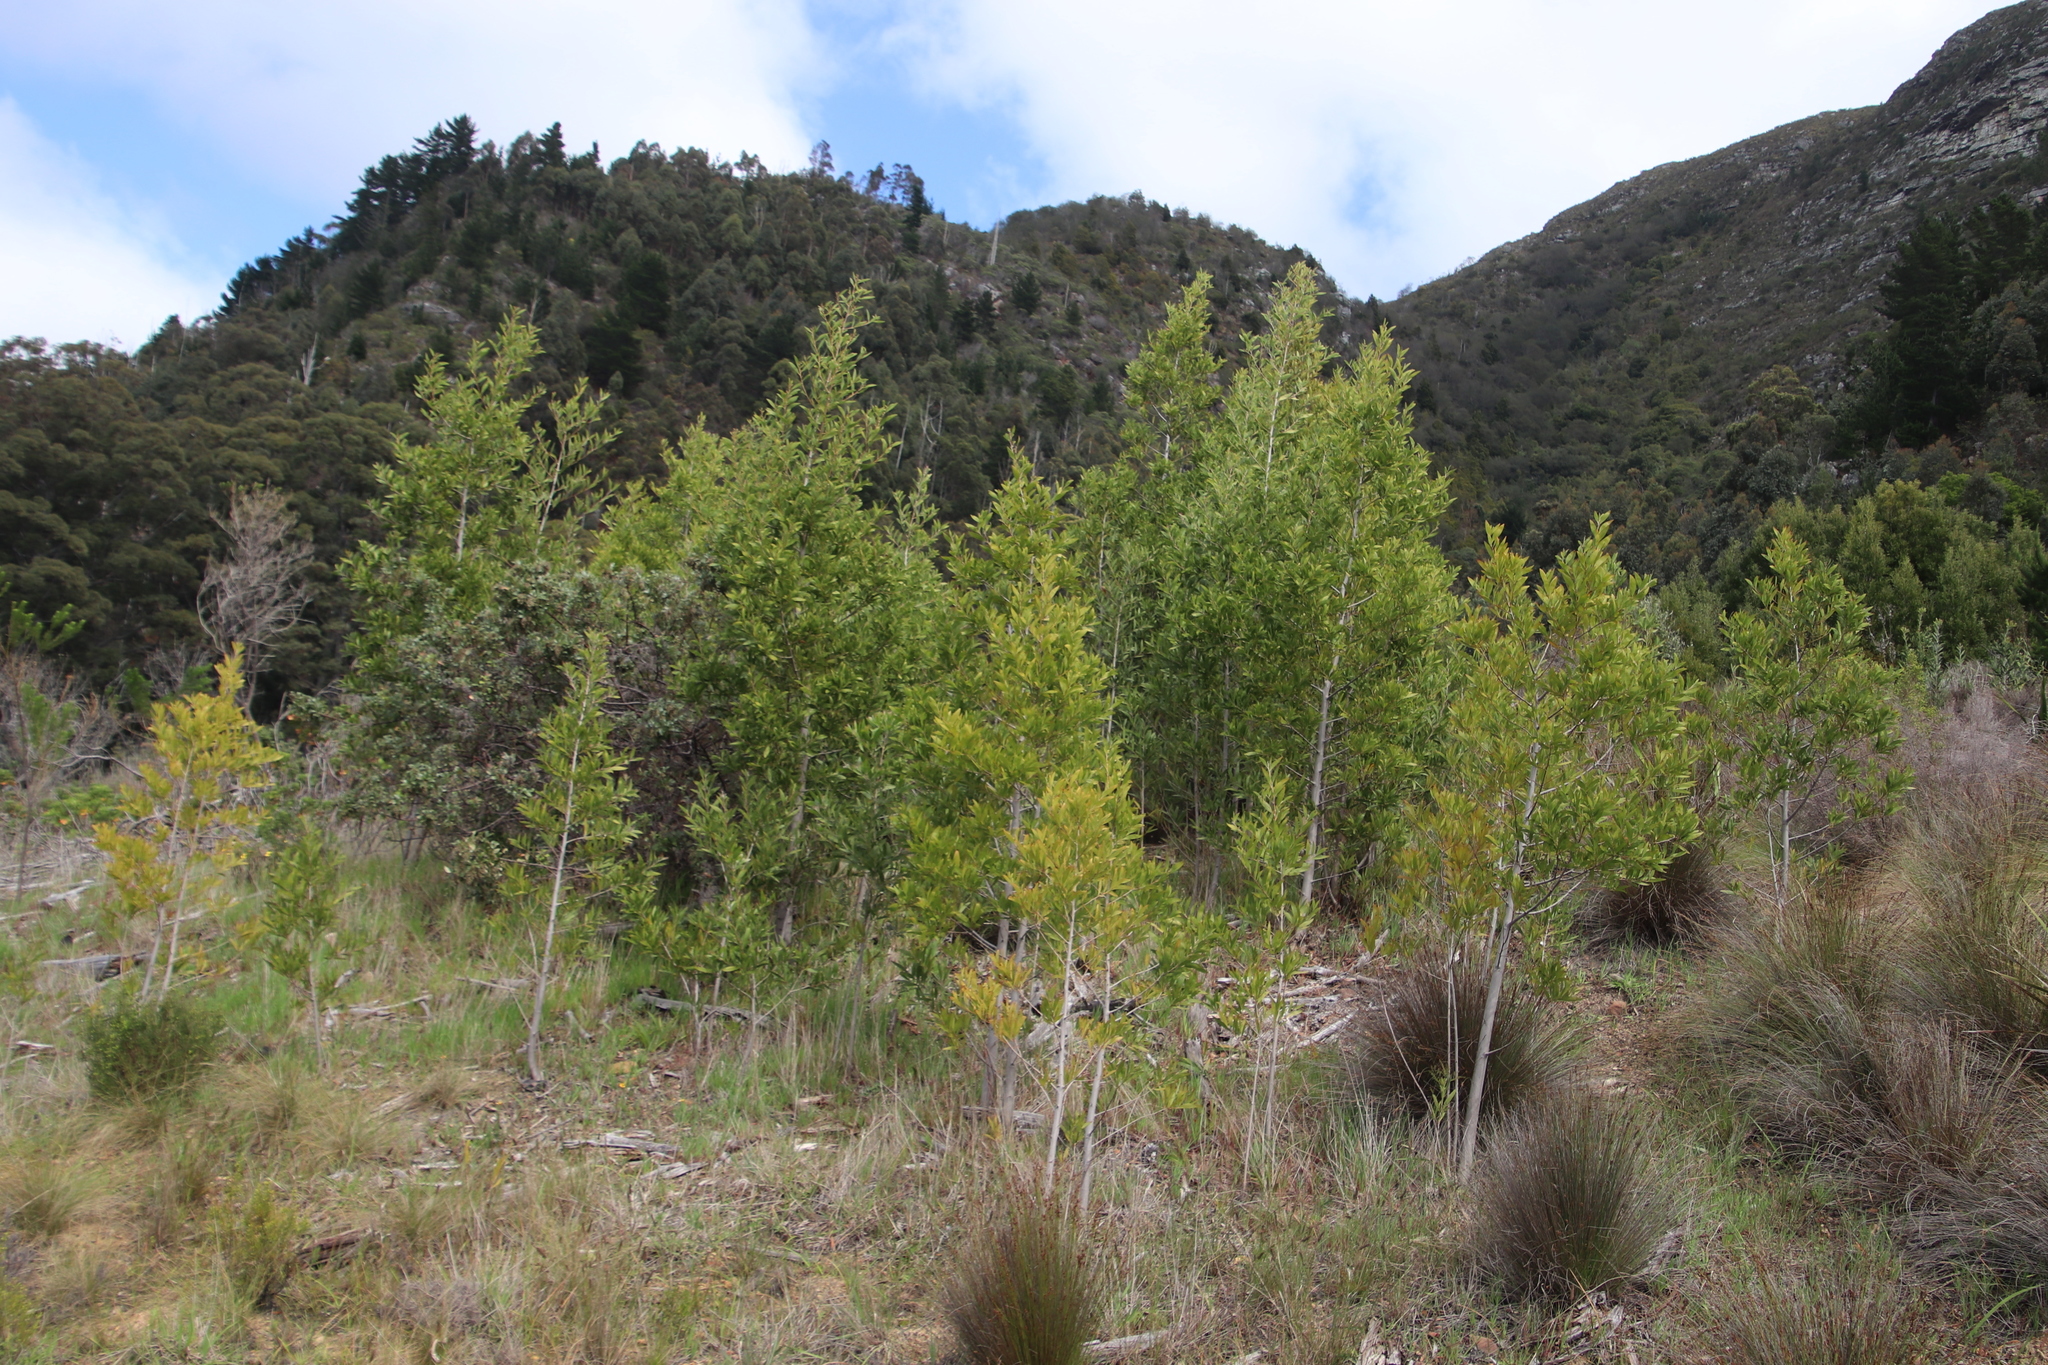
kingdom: Plantae
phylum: Tracheophyta
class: Magnoliopsida
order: Fabales
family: Fabaceae
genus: Acacia
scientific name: Acacia melanoxylon
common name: Blackwood
